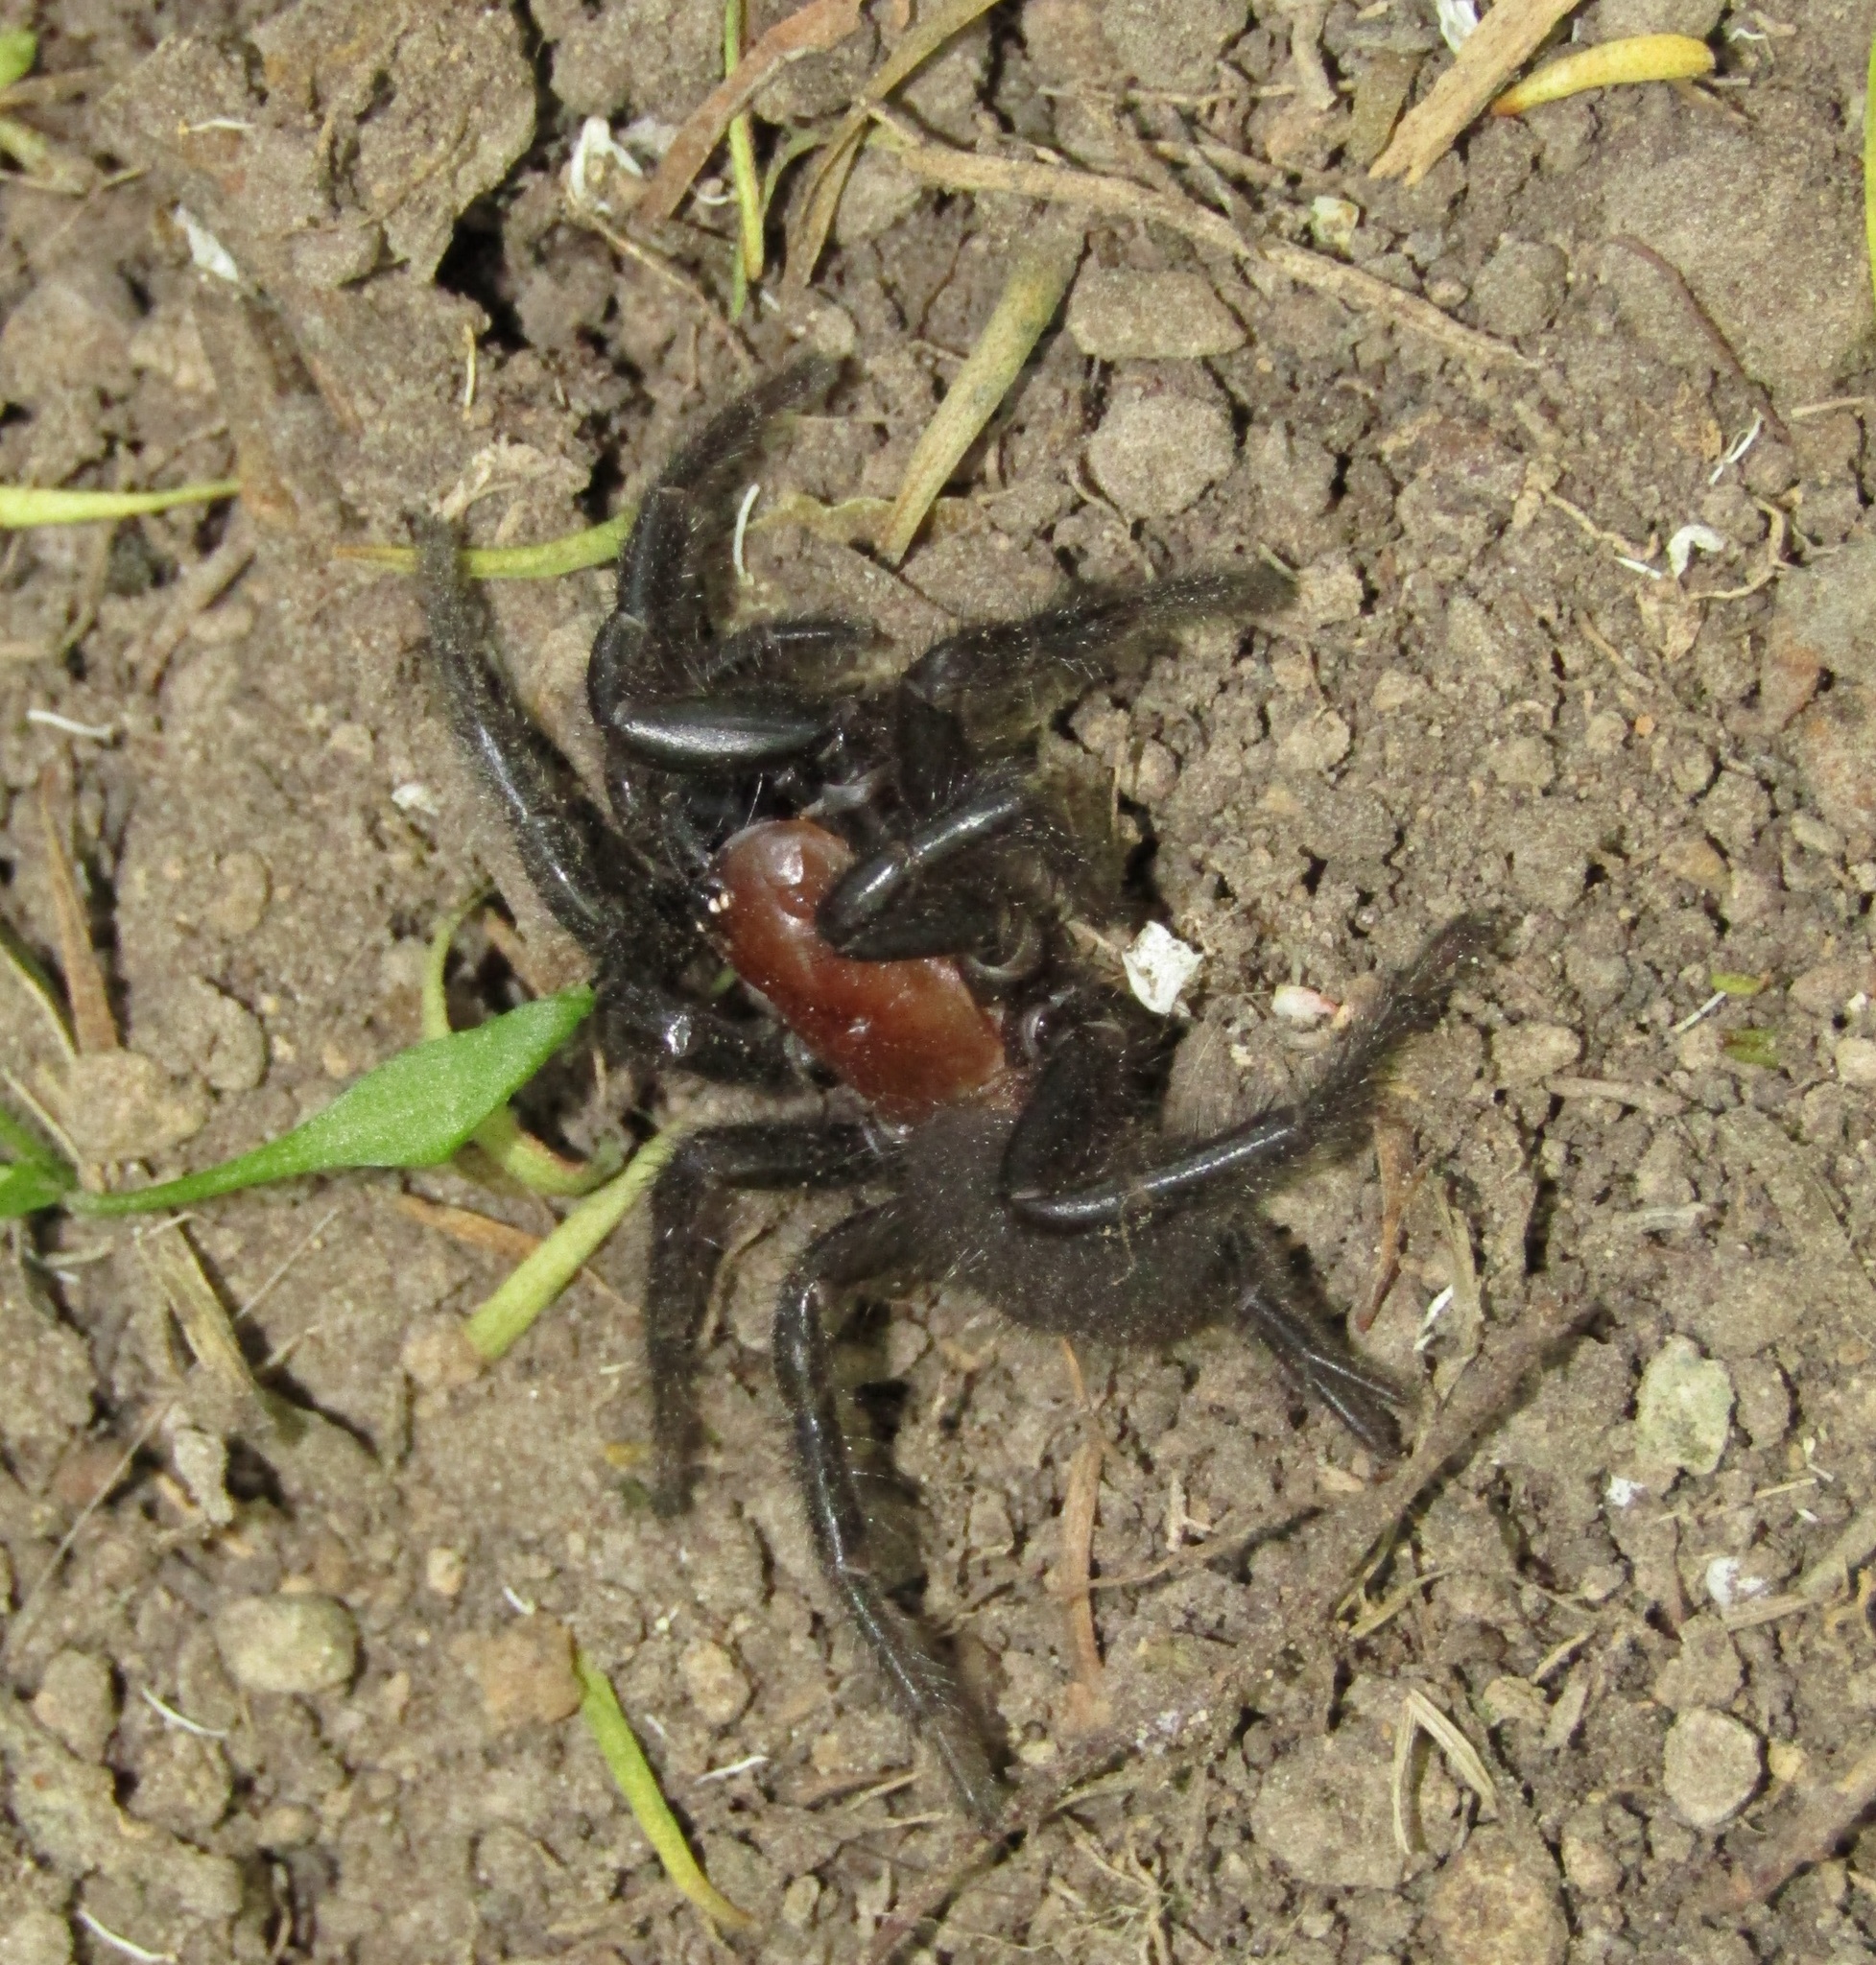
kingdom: Animalia
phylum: Arthropoda
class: Arachnida
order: Araneae
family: Porrhothelidae
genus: Porrhothele
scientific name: Porrhothele antipodiana
